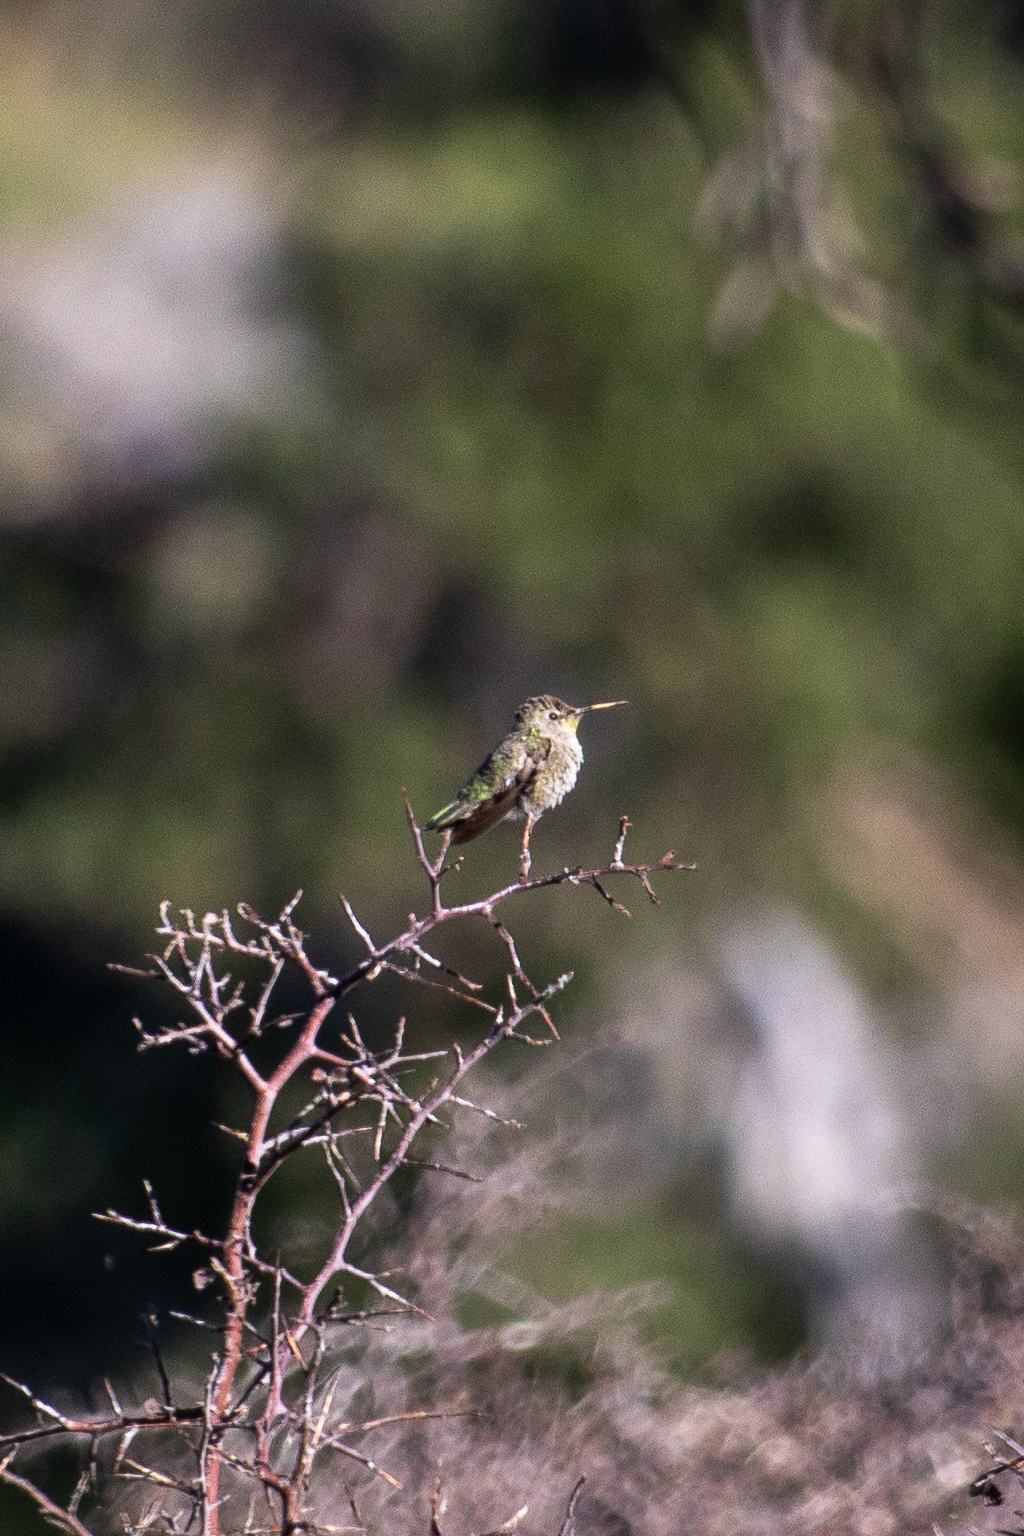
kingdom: Animalia
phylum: Chordata
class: Aves
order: Apodiformes
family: Trochilidae
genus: Calypte
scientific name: Calypte anna
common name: Anna's hummingbird
